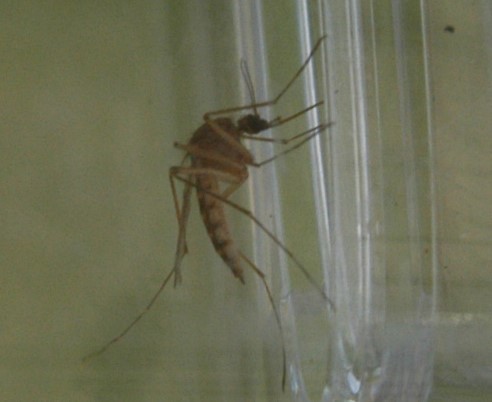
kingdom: Animalia
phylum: Arthropoda
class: Insecta
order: Diptera
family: Culicidae
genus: Aedes
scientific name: Aedes vexans
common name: Inland floodwater mosquito
